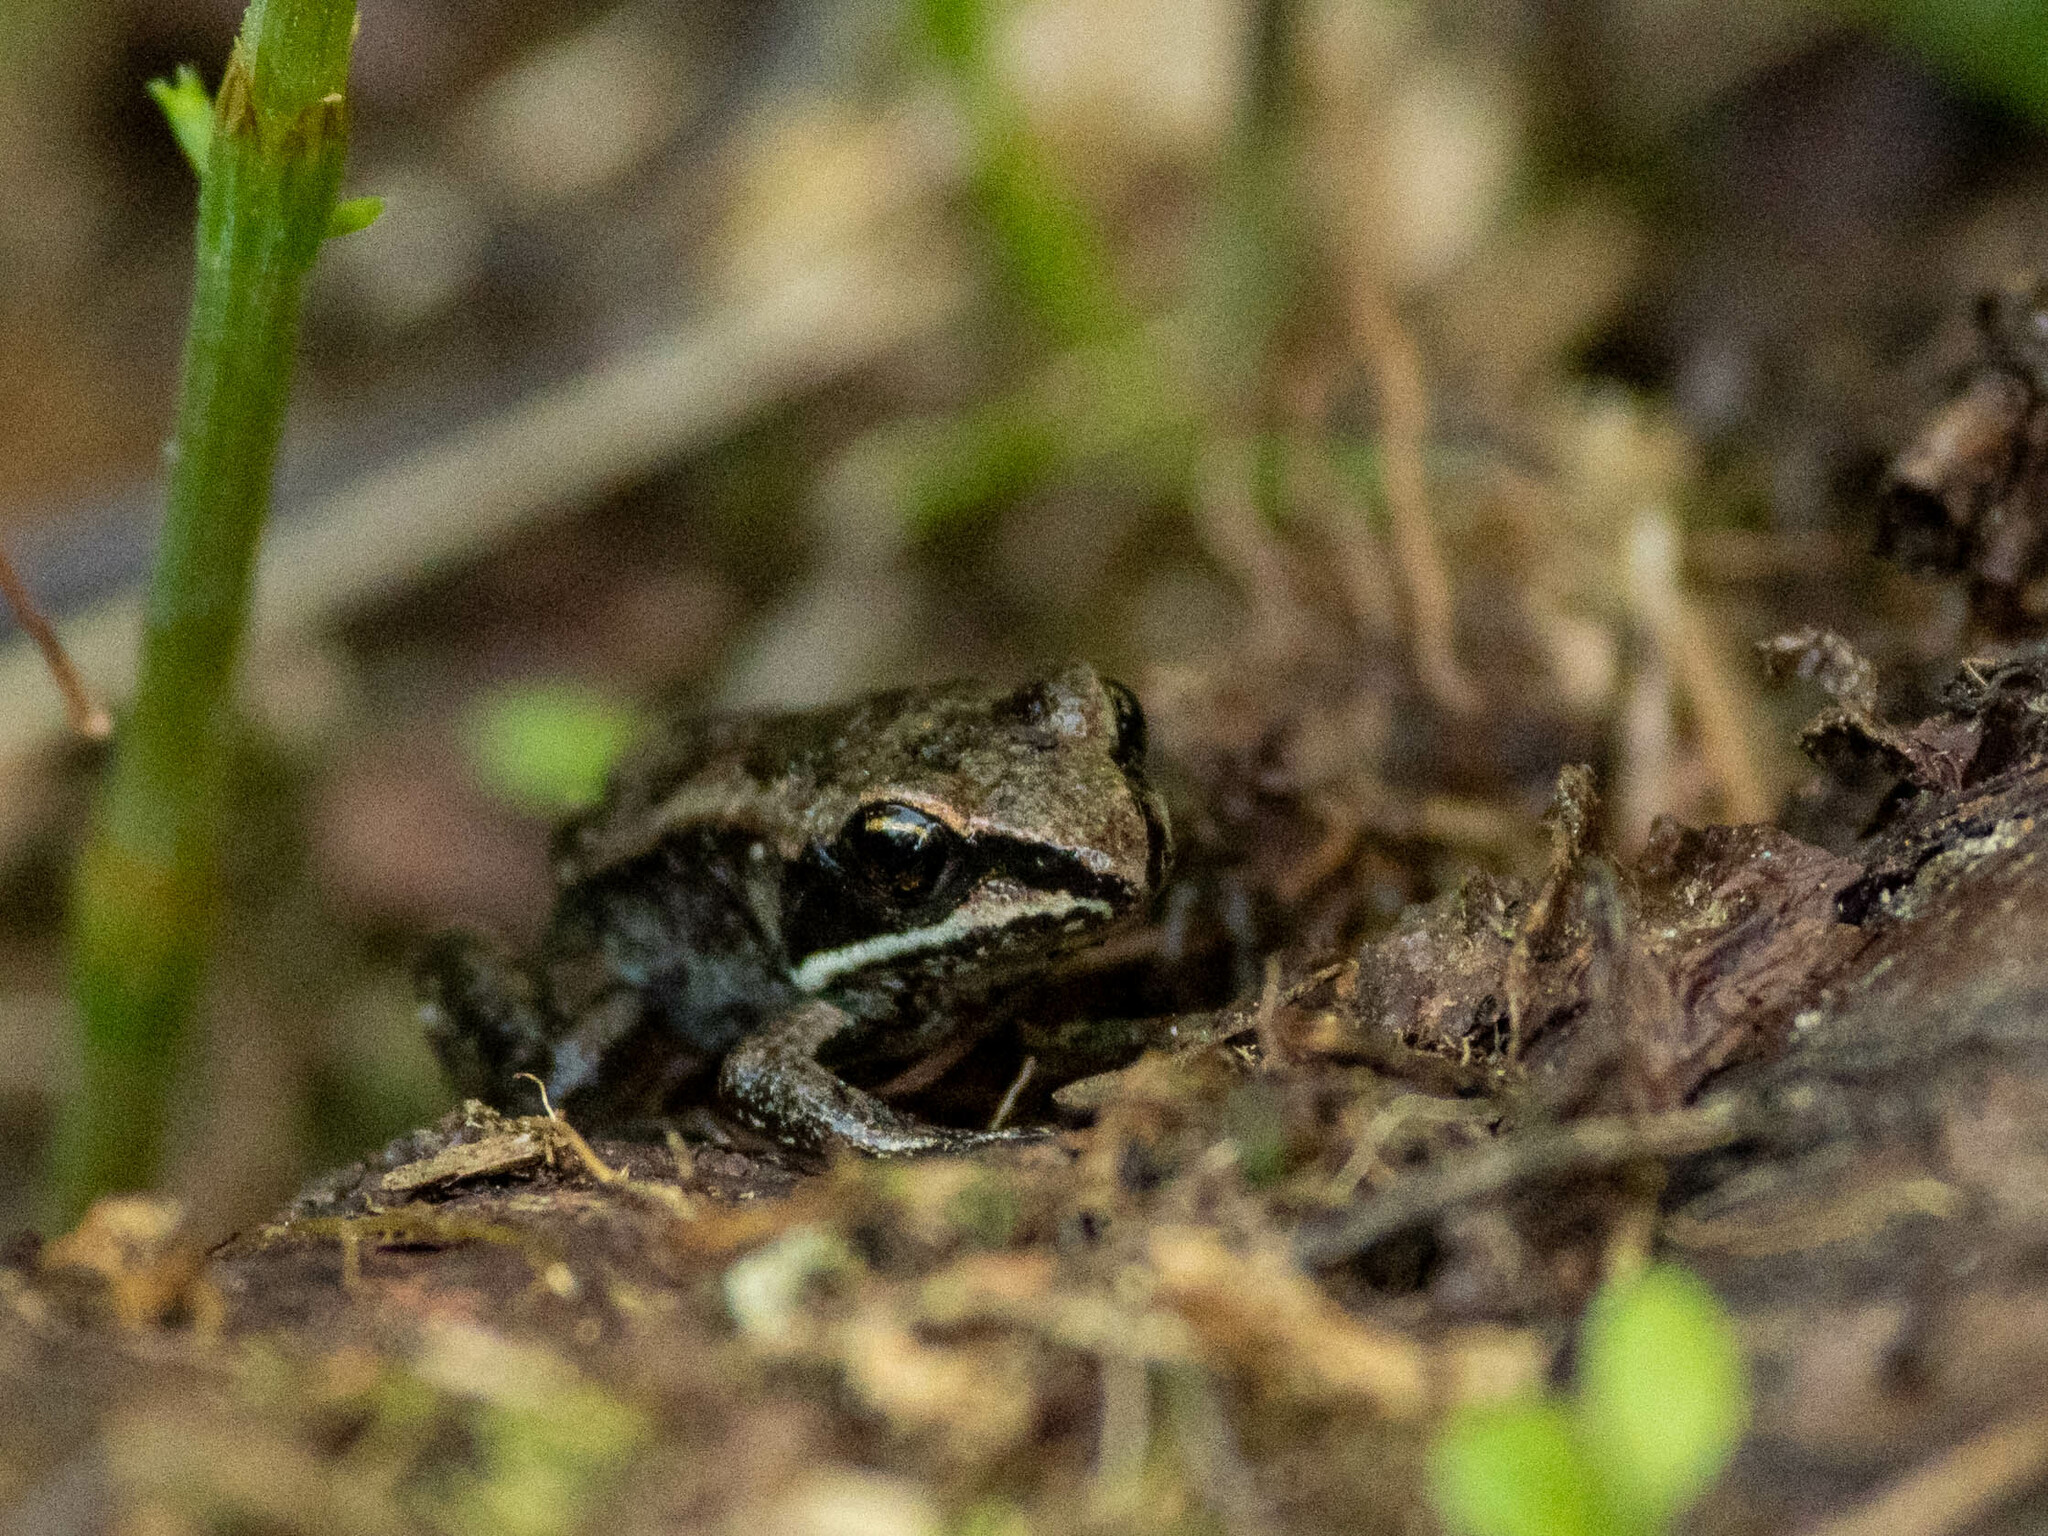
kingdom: Animalia
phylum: Chordata
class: Amphibia
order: Anura
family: Ranidae
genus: Lithobates
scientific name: Lithobates sylvaticus
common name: Wood frog
